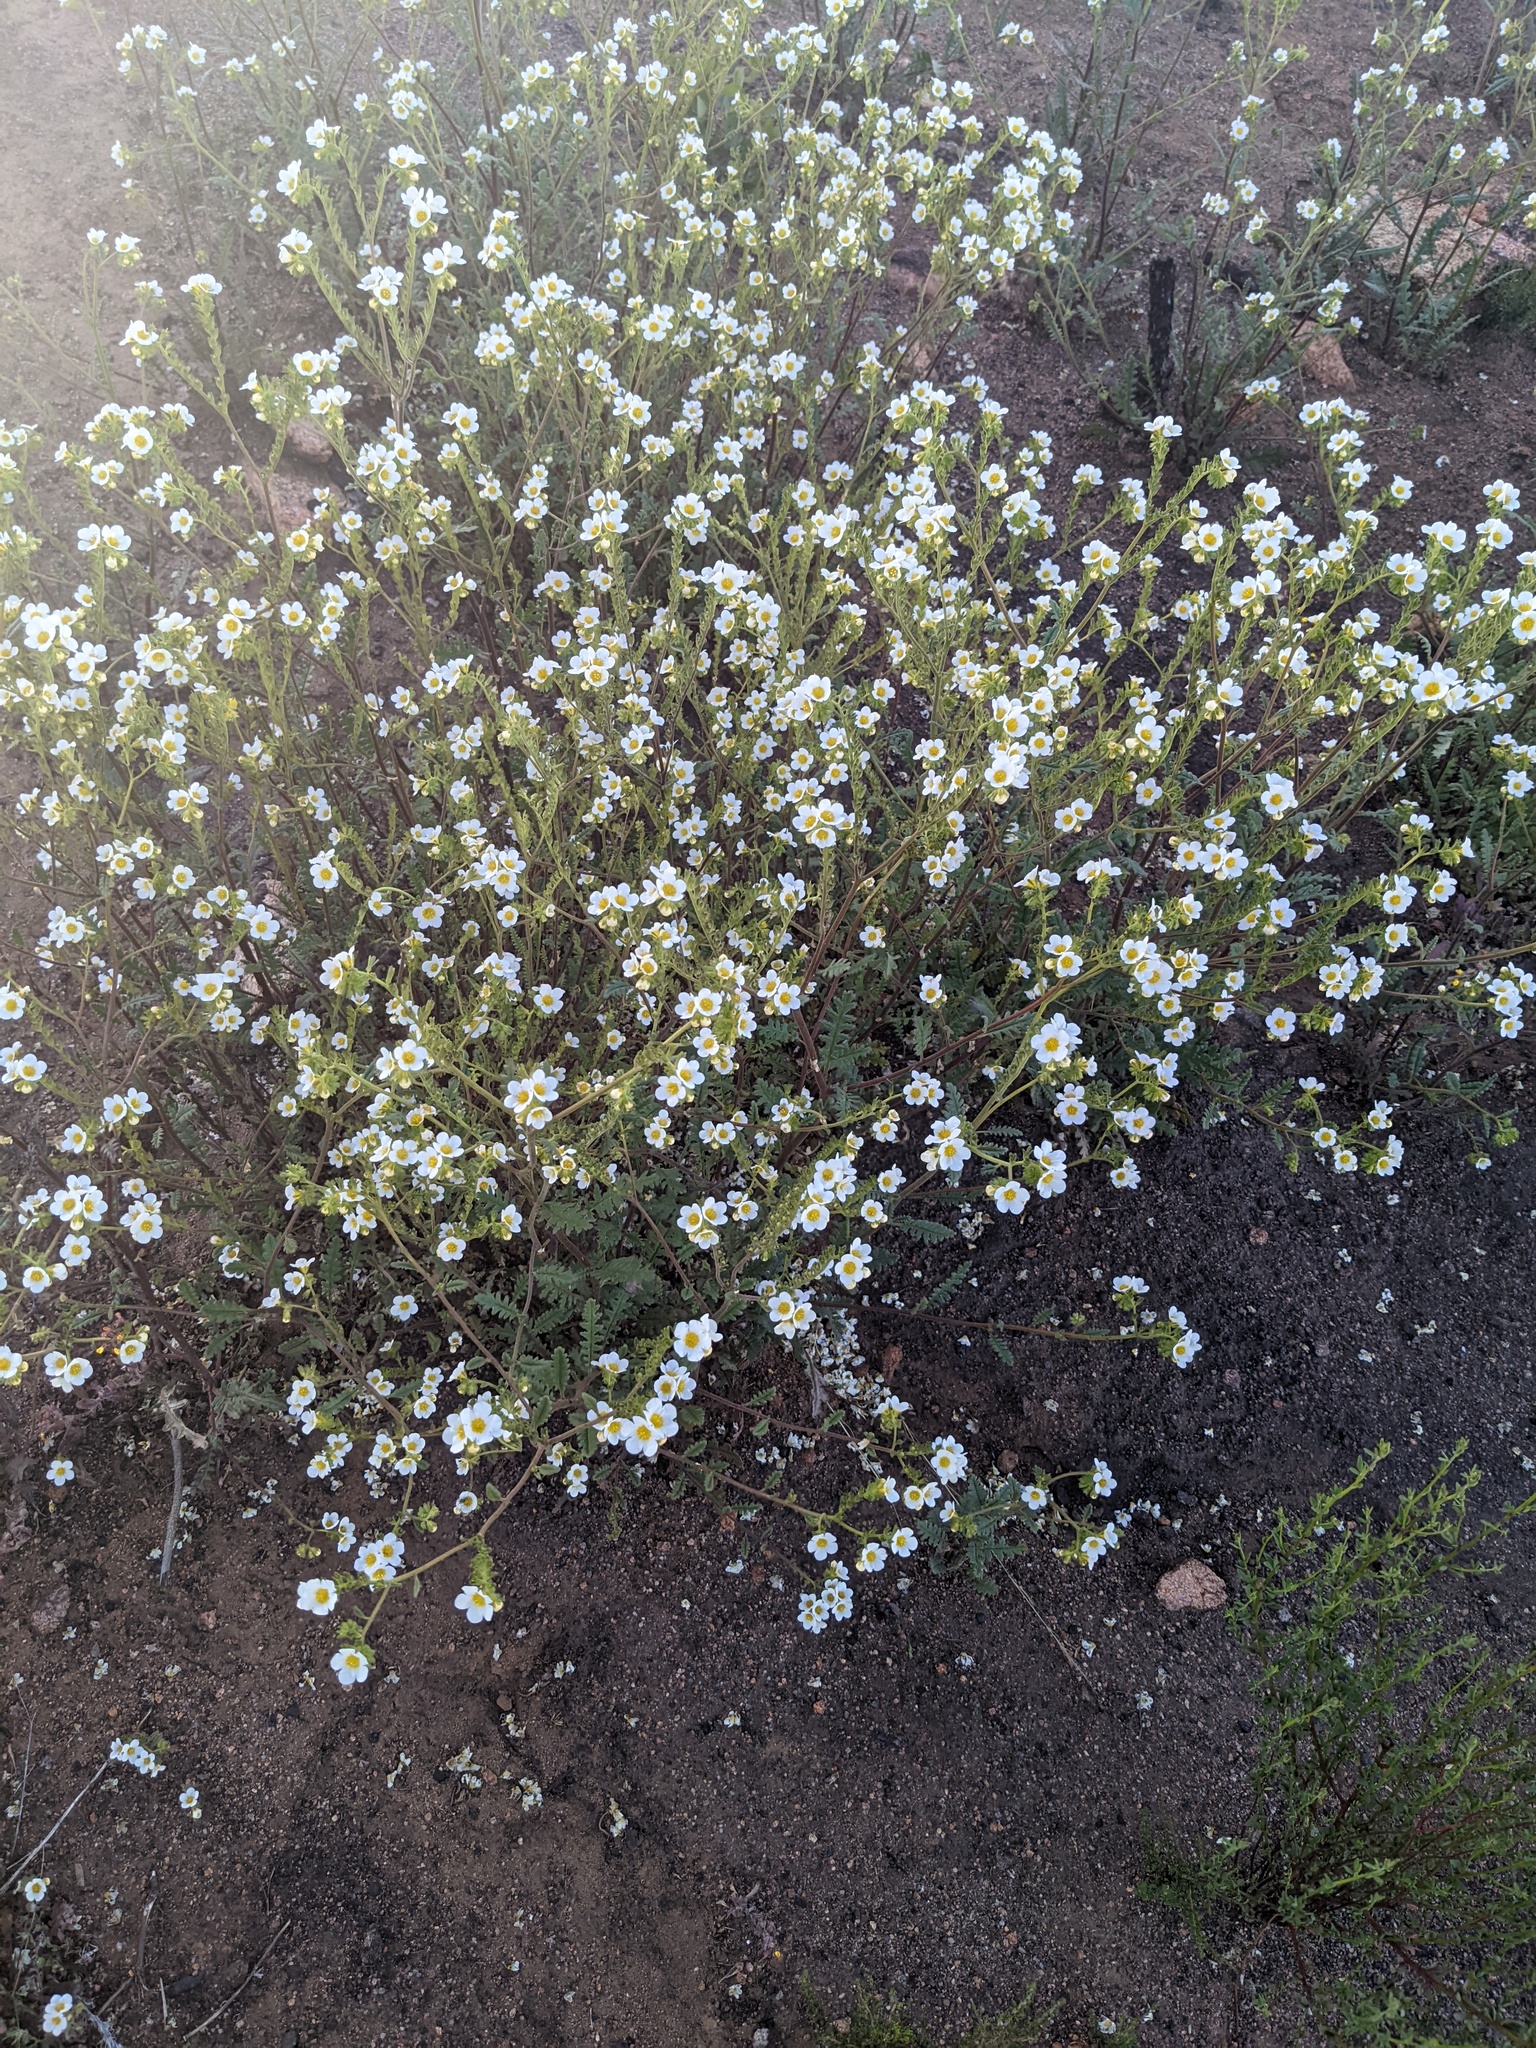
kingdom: Plantae
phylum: Tracheophyta
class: Magnoliopsida
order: Boraginales
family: Hydrophyllaceae
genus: Phacelia
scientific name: Phacelia brachyloba
